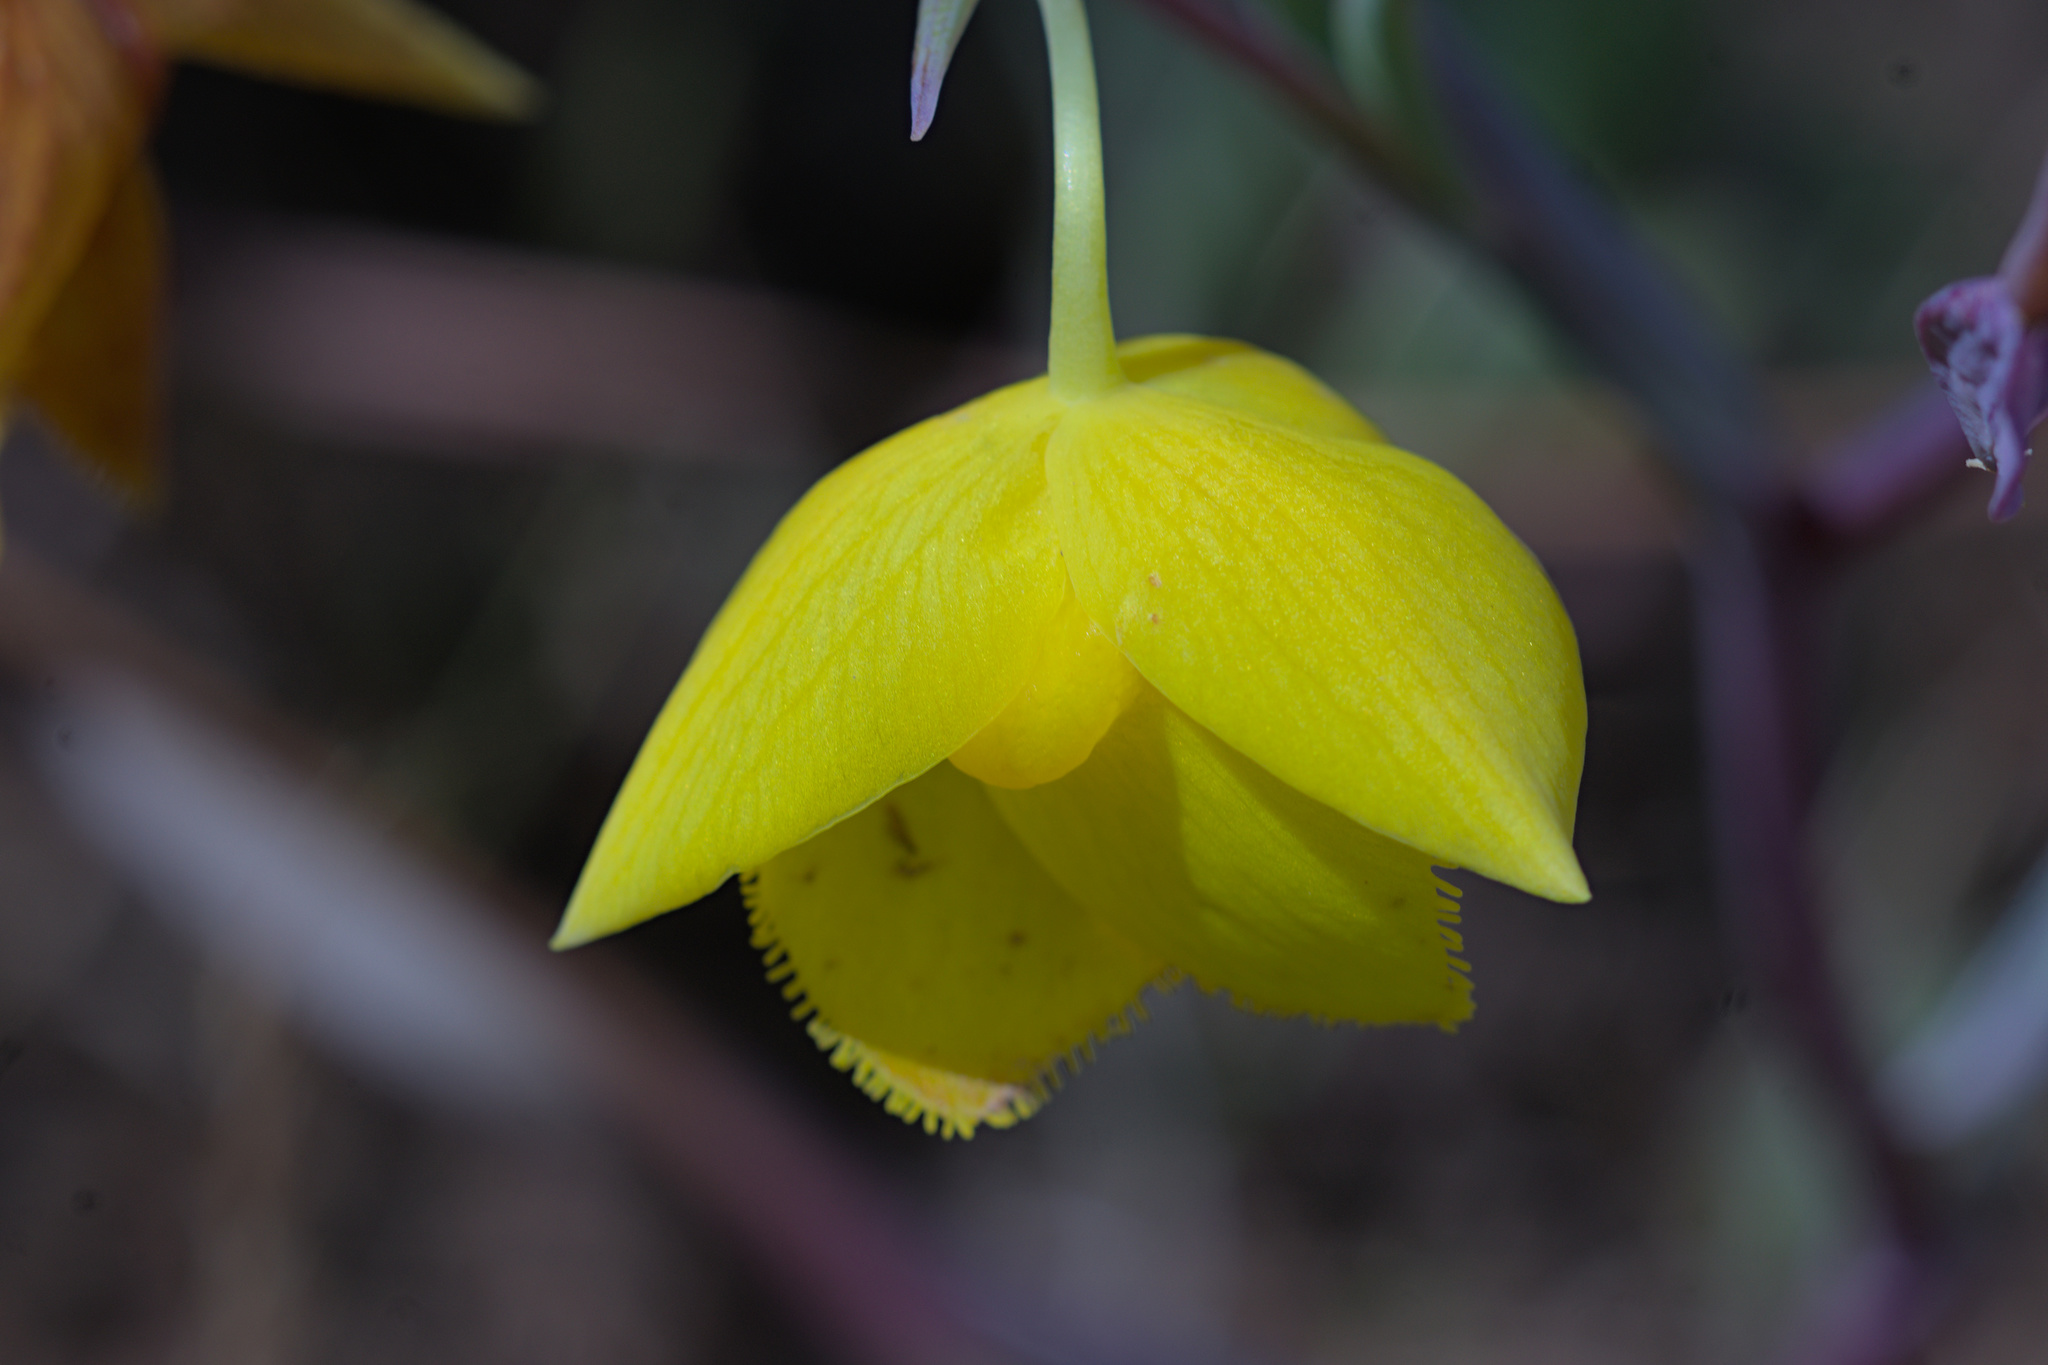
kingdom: Plantae
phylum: Tracheophyta
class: Liliopsida
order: Liliales
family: Liliaceae
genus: Calochortus
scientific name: Calochortus amabilis
